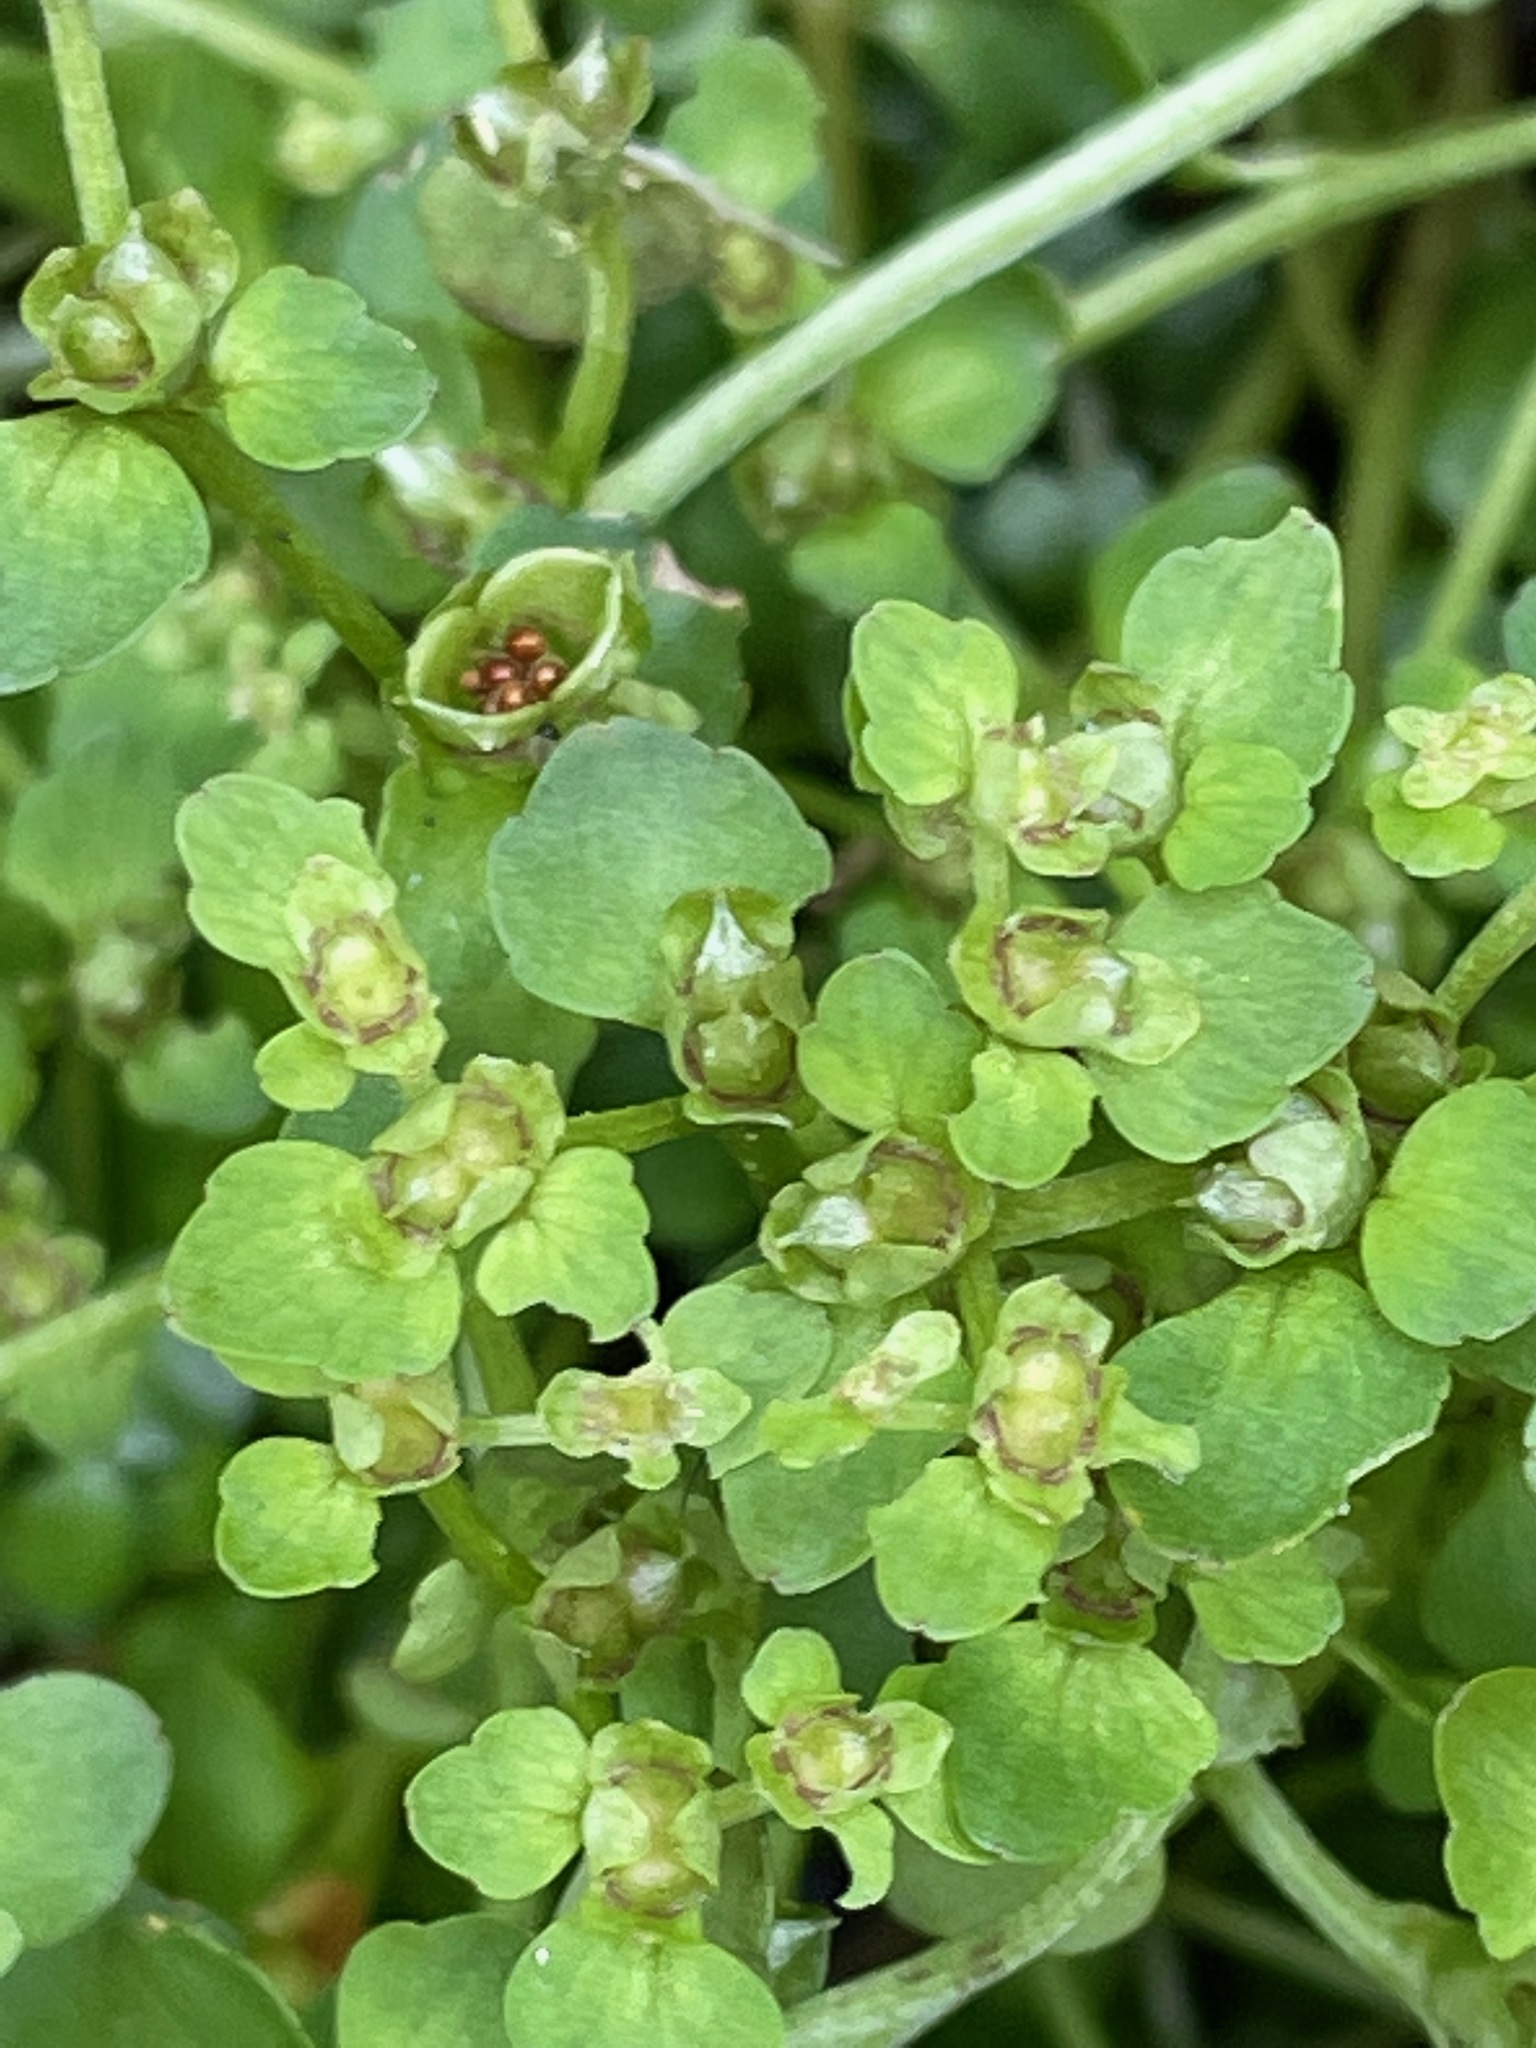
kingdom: Plantae
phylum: Tracheophyta
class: Magnoliopsida
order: Saxifragales
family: Saxifragaceae
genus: Chrysosplenium
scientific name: Chrysosplenium americanum
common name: American golden-saxifrage
